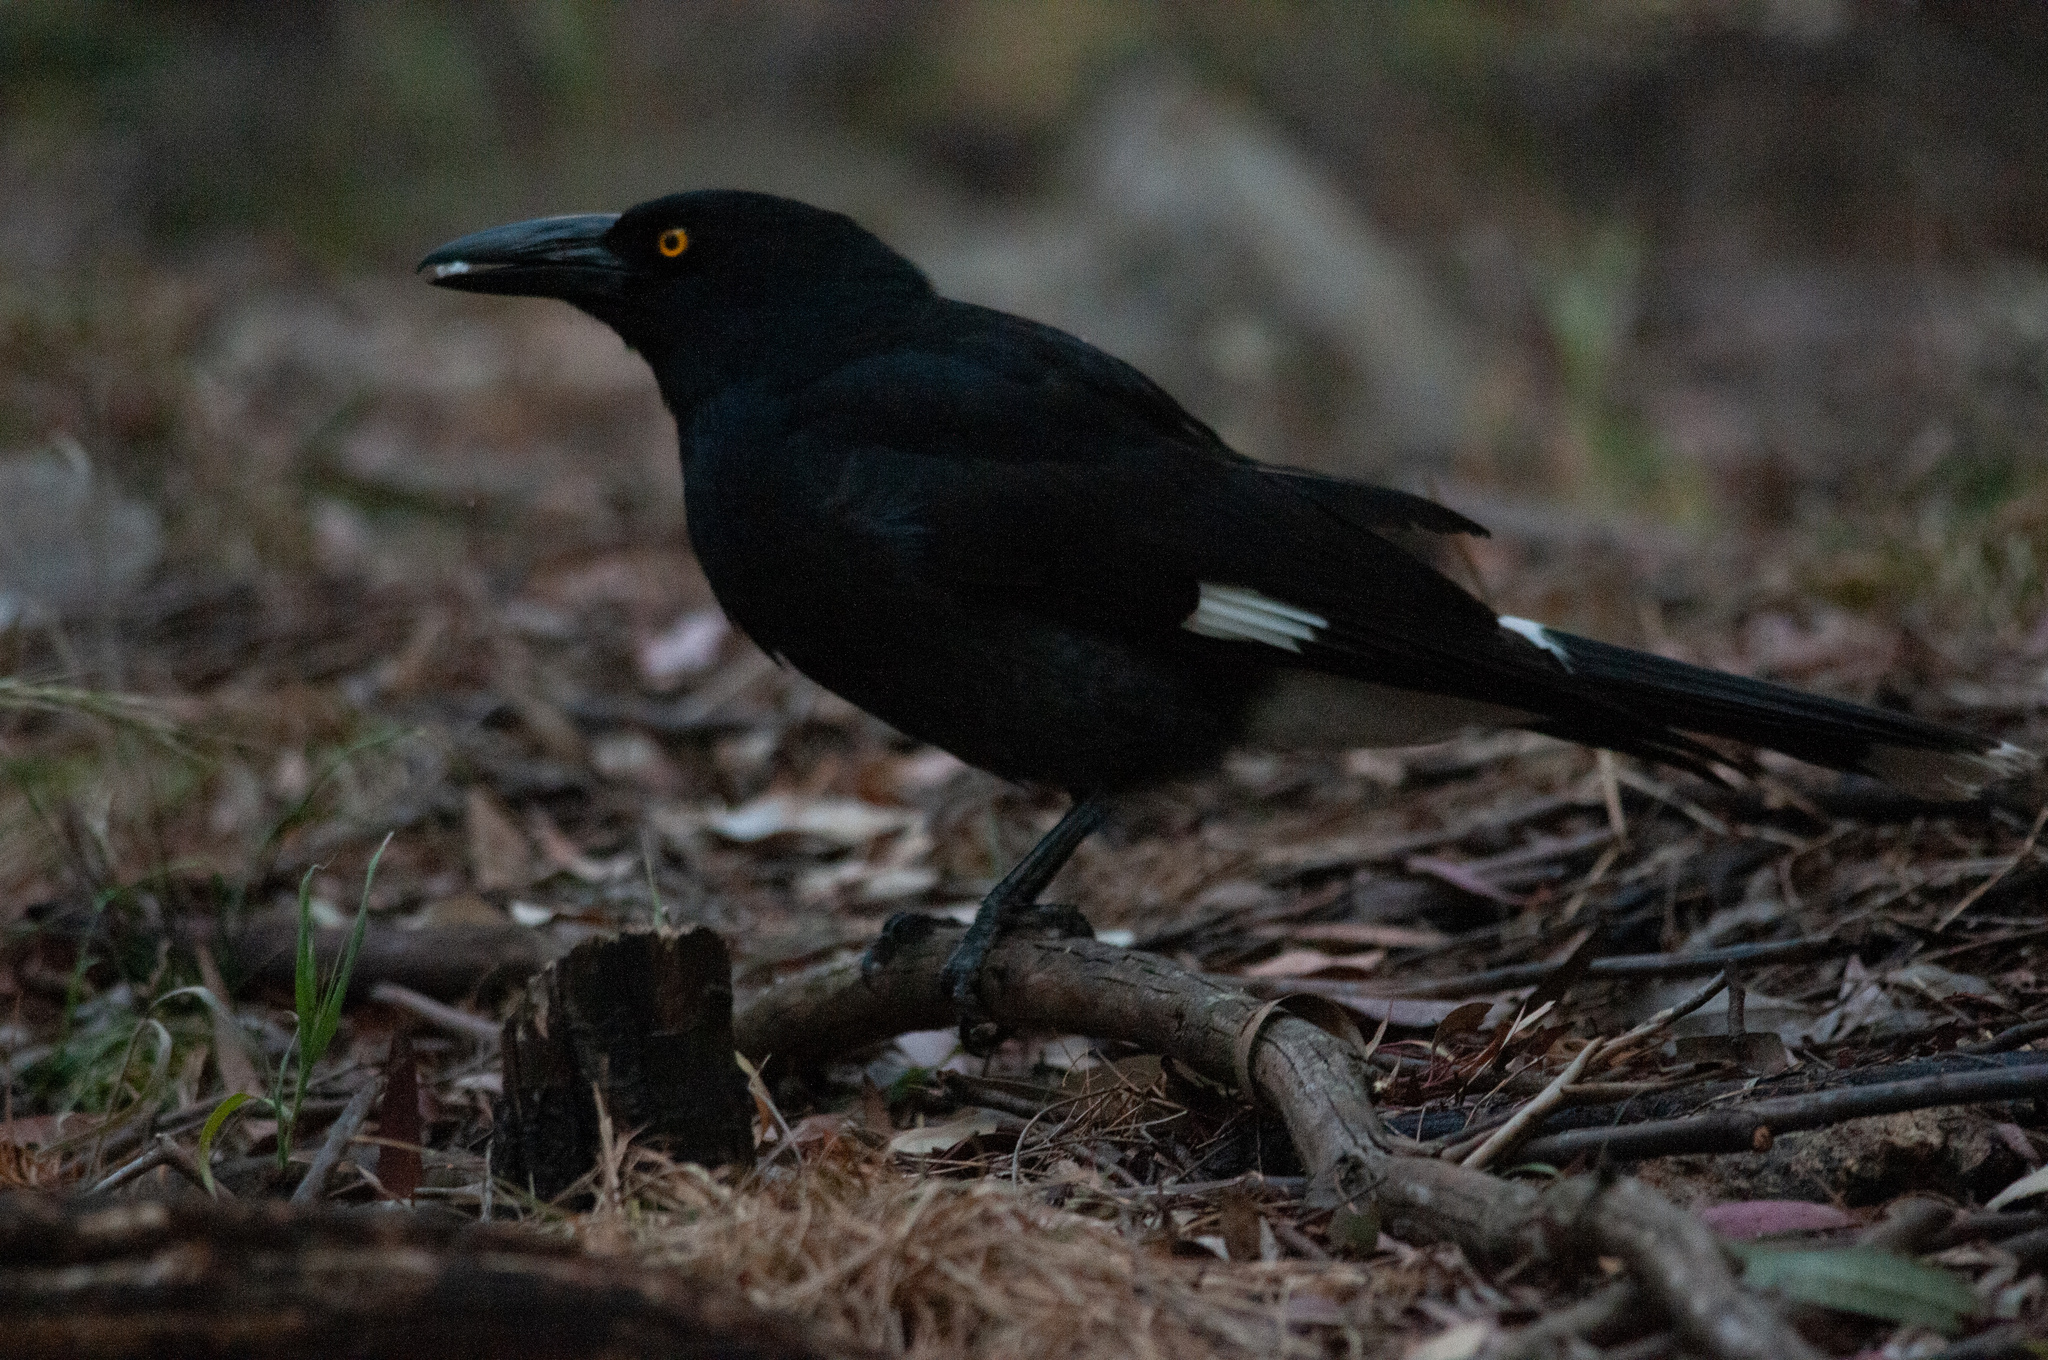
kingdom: Animalia
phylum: Chordata
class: Aves
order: Passeriformes
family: Cracticidae
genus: Strepera
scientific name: Strepera graculina
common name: Pied currawong
